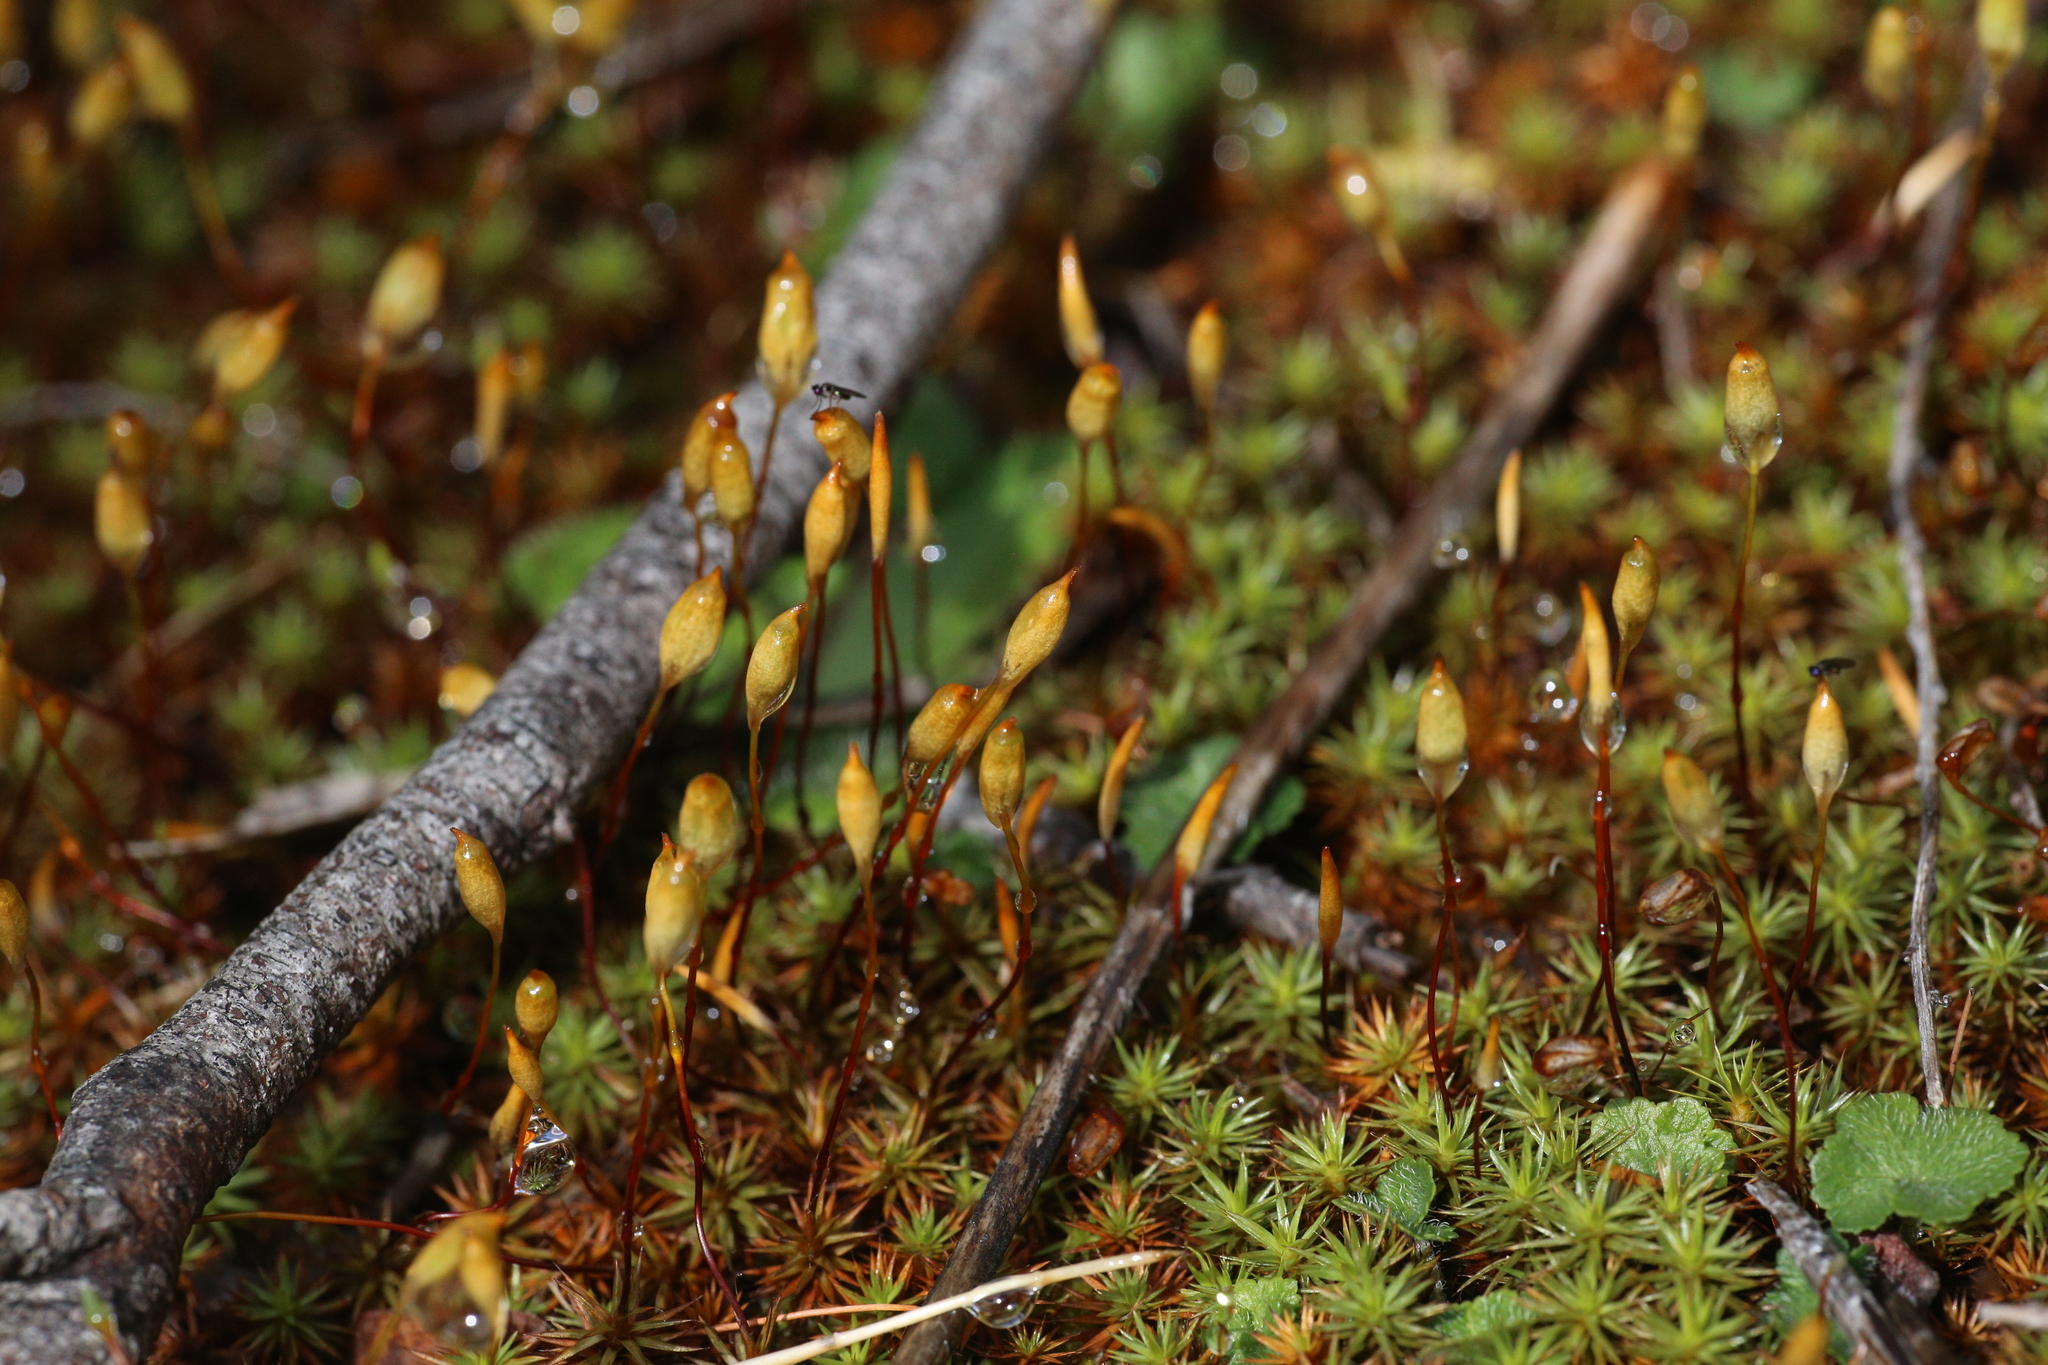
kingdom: Plantae
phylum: Bryophyta
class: Polytrichopsida
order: Polytrichales
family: Polytrichaceae
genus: Polytrichum
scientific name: Polytrichum juniperinum
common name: Juniper haircap moss
